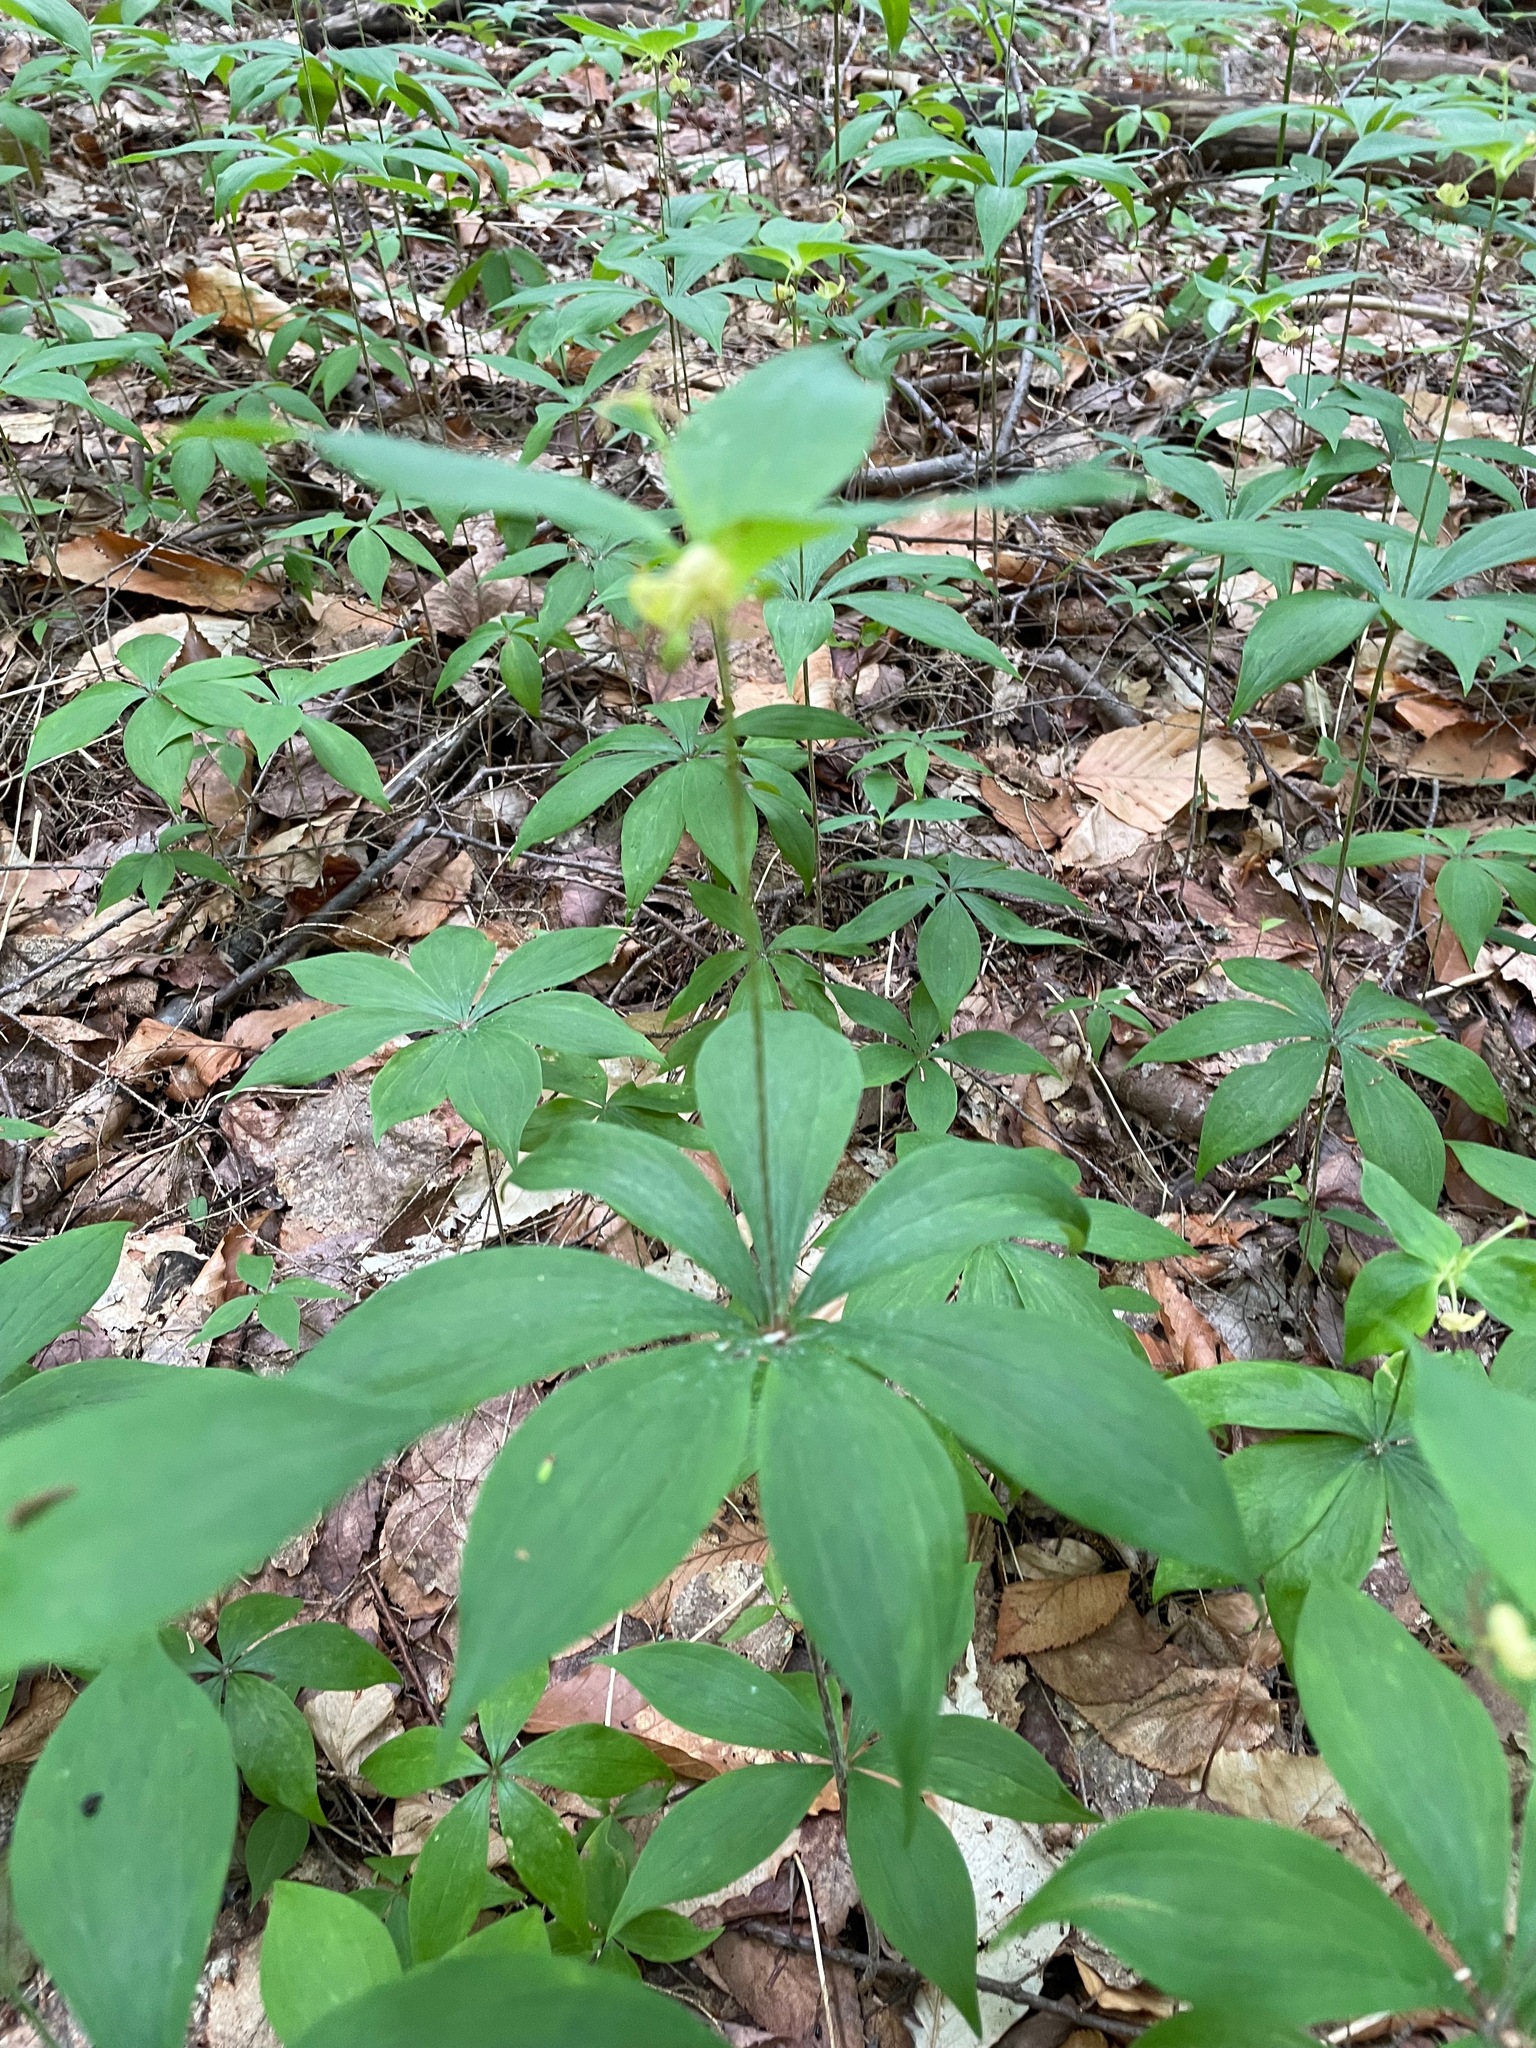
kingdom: Plantae
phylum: Tracheophyta
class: Liliopsida
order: Liliales
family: Liliaceae
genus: Medeola
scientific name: Medeola virginiana
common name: Indian cucumber-root
